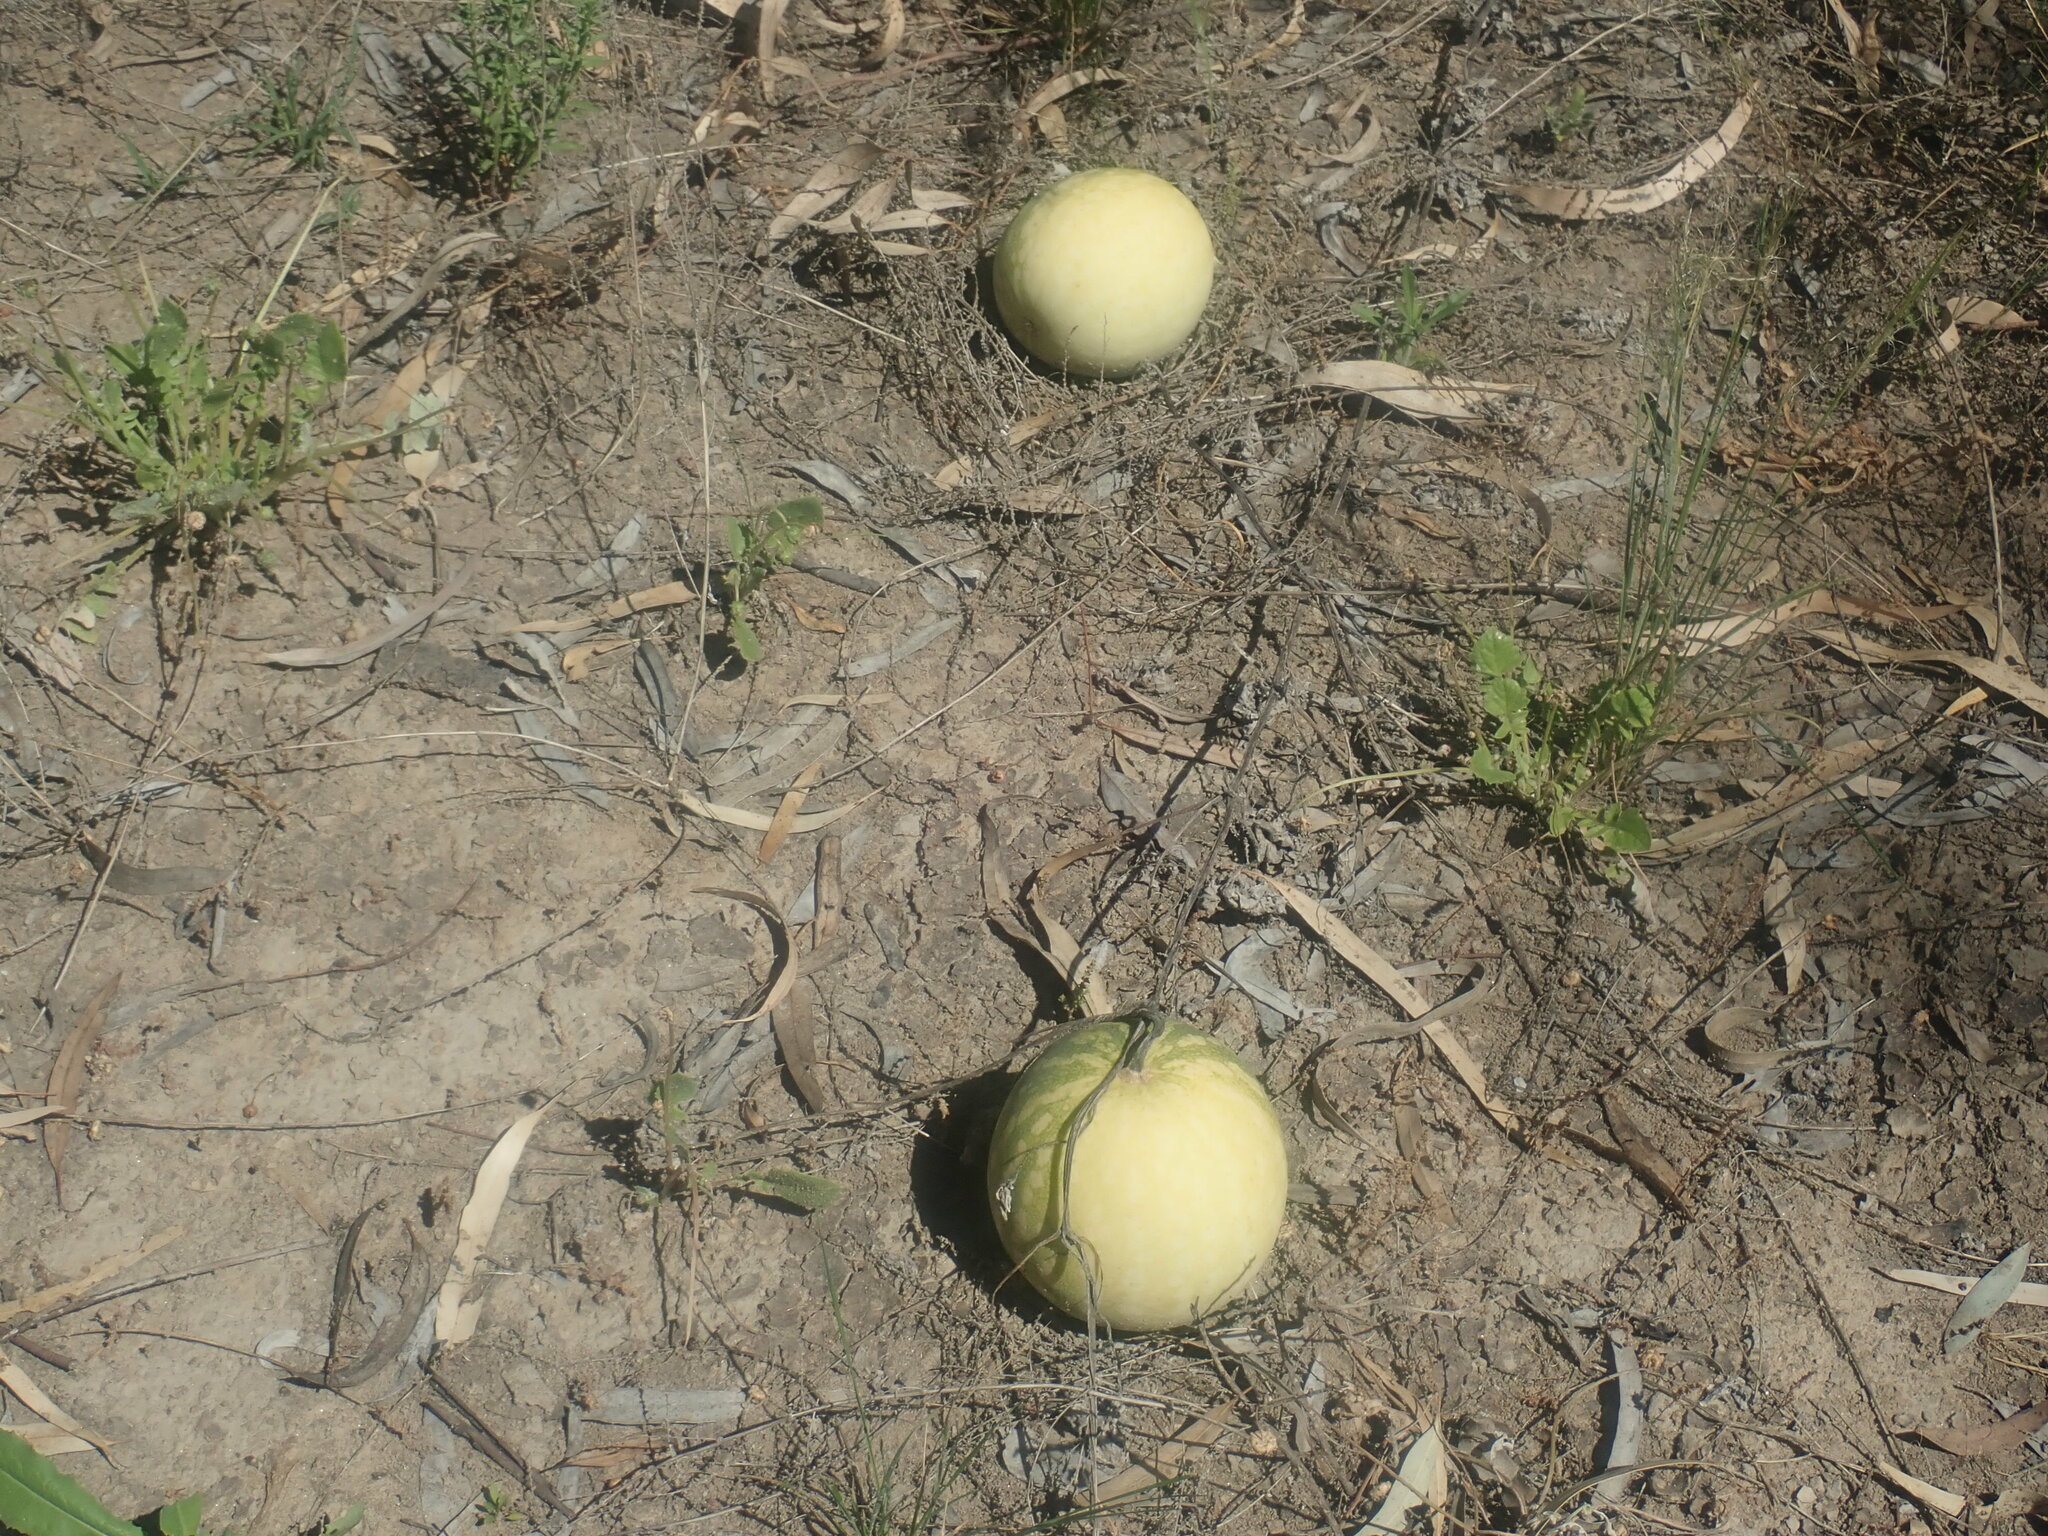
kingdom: Plantae
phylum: Tracheophyta
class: Magnoliopsida
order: Cucurbitales
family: Cucurbitaceae
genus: Citrullus
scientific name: Citrullus amarus
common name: Fodder-melon
